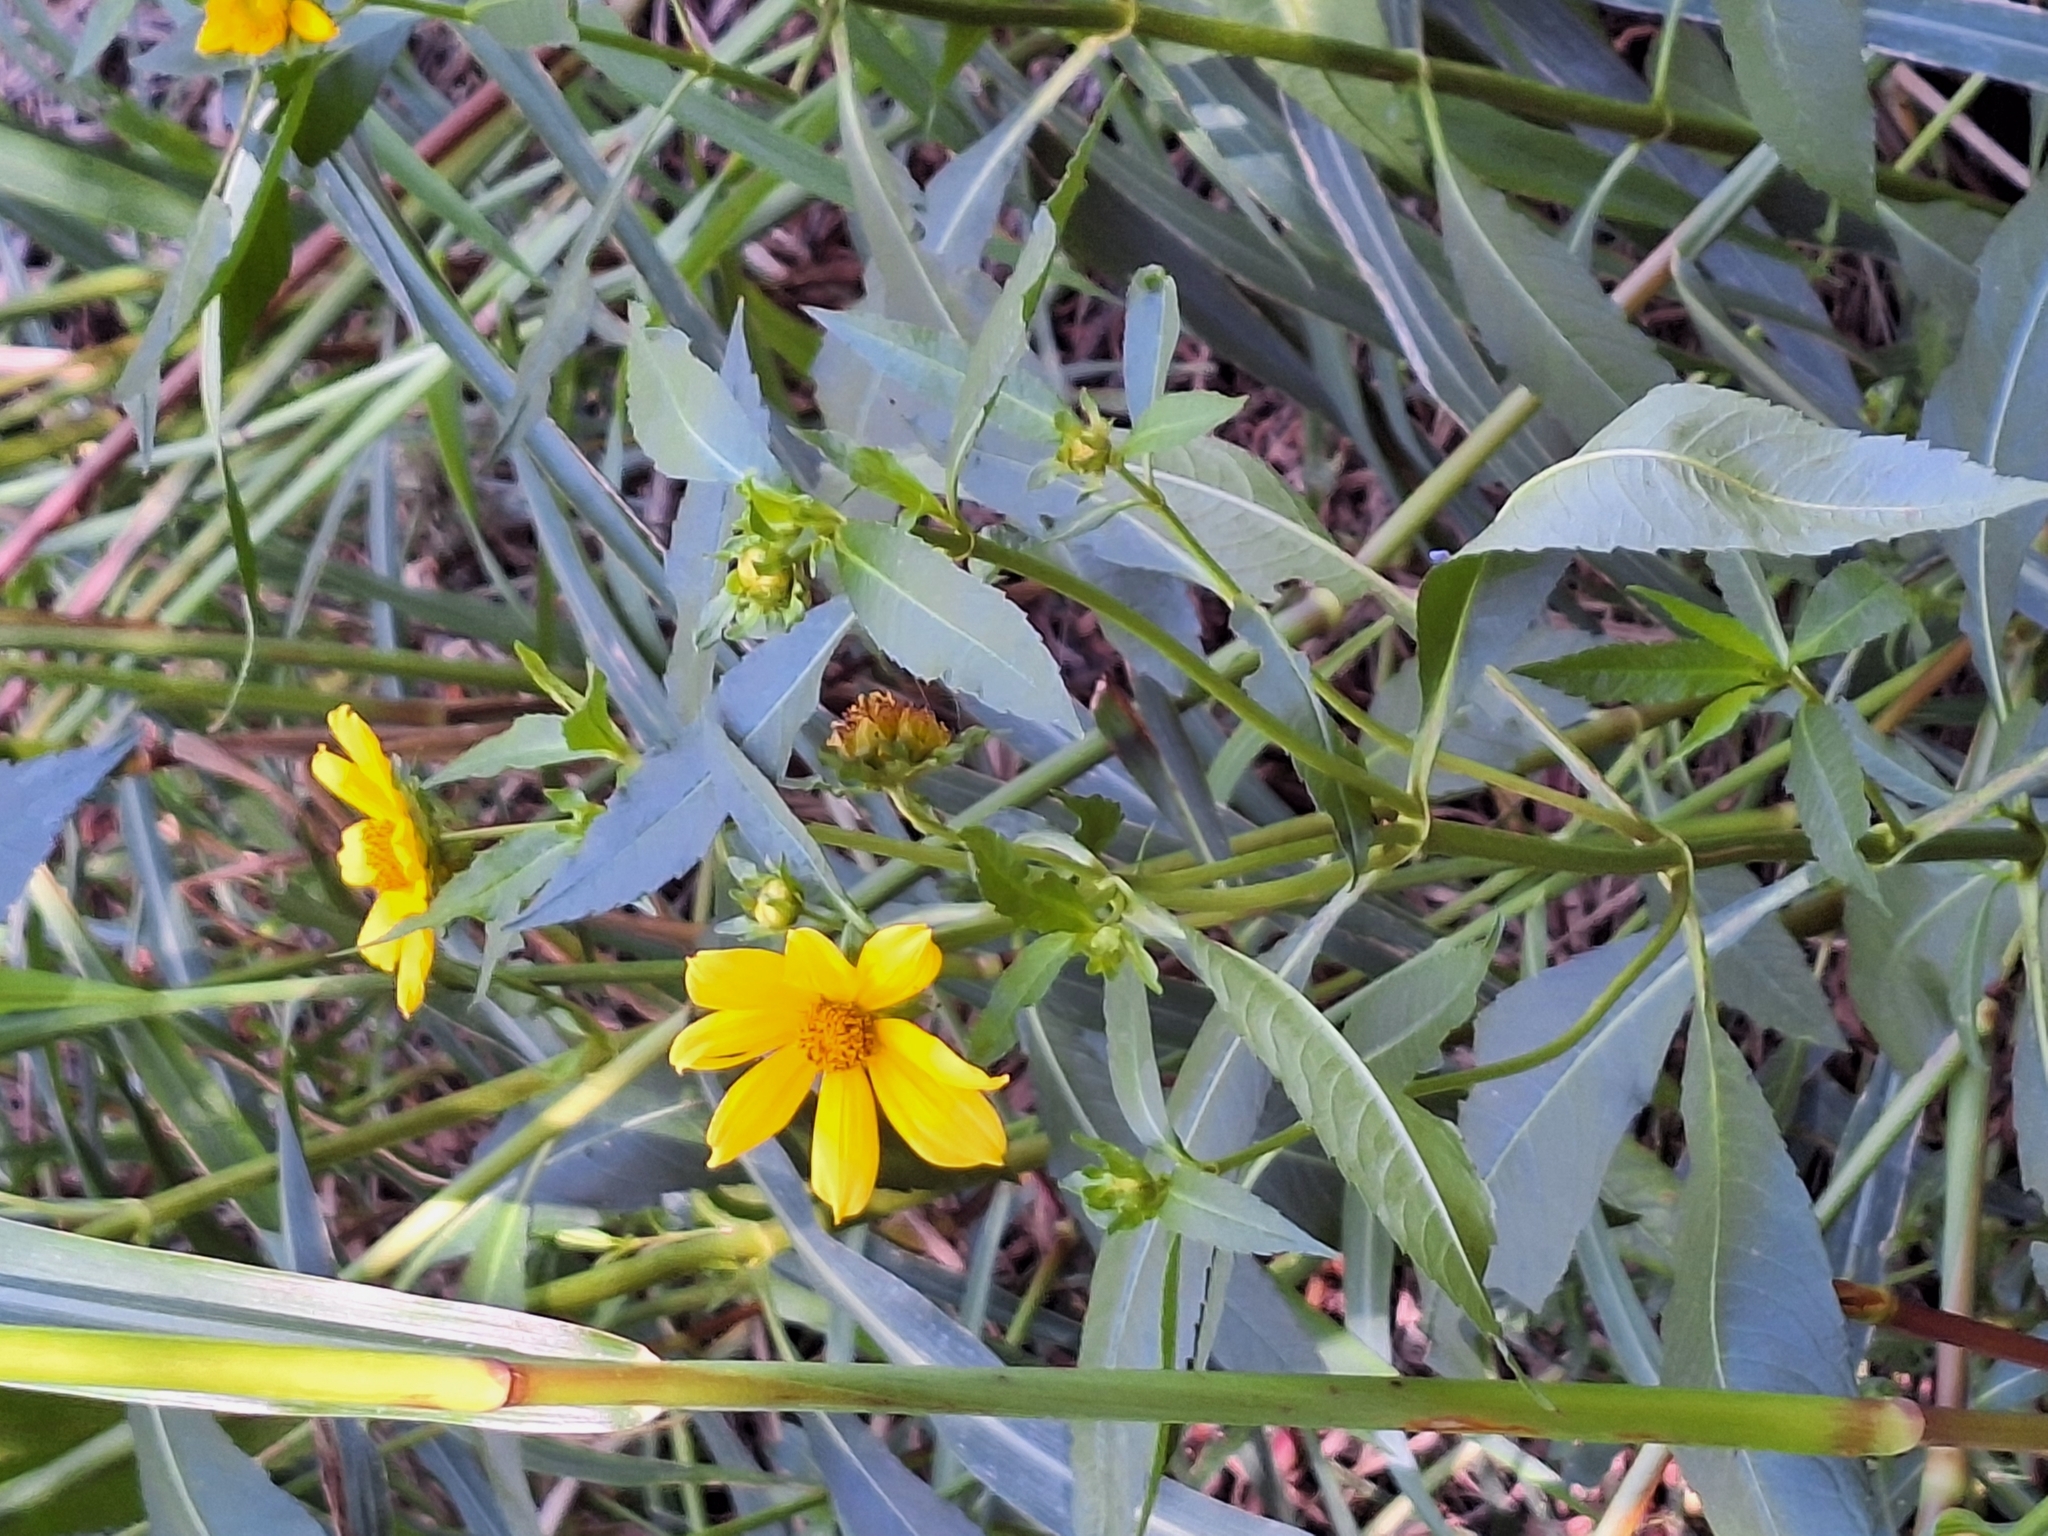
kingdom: Plantae
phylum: Tracheophyta
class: Magnoliopsida
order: Asterales
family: Asteraceae
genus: Bidens
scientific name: Bidens laevis
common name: Larger bur-marigold
